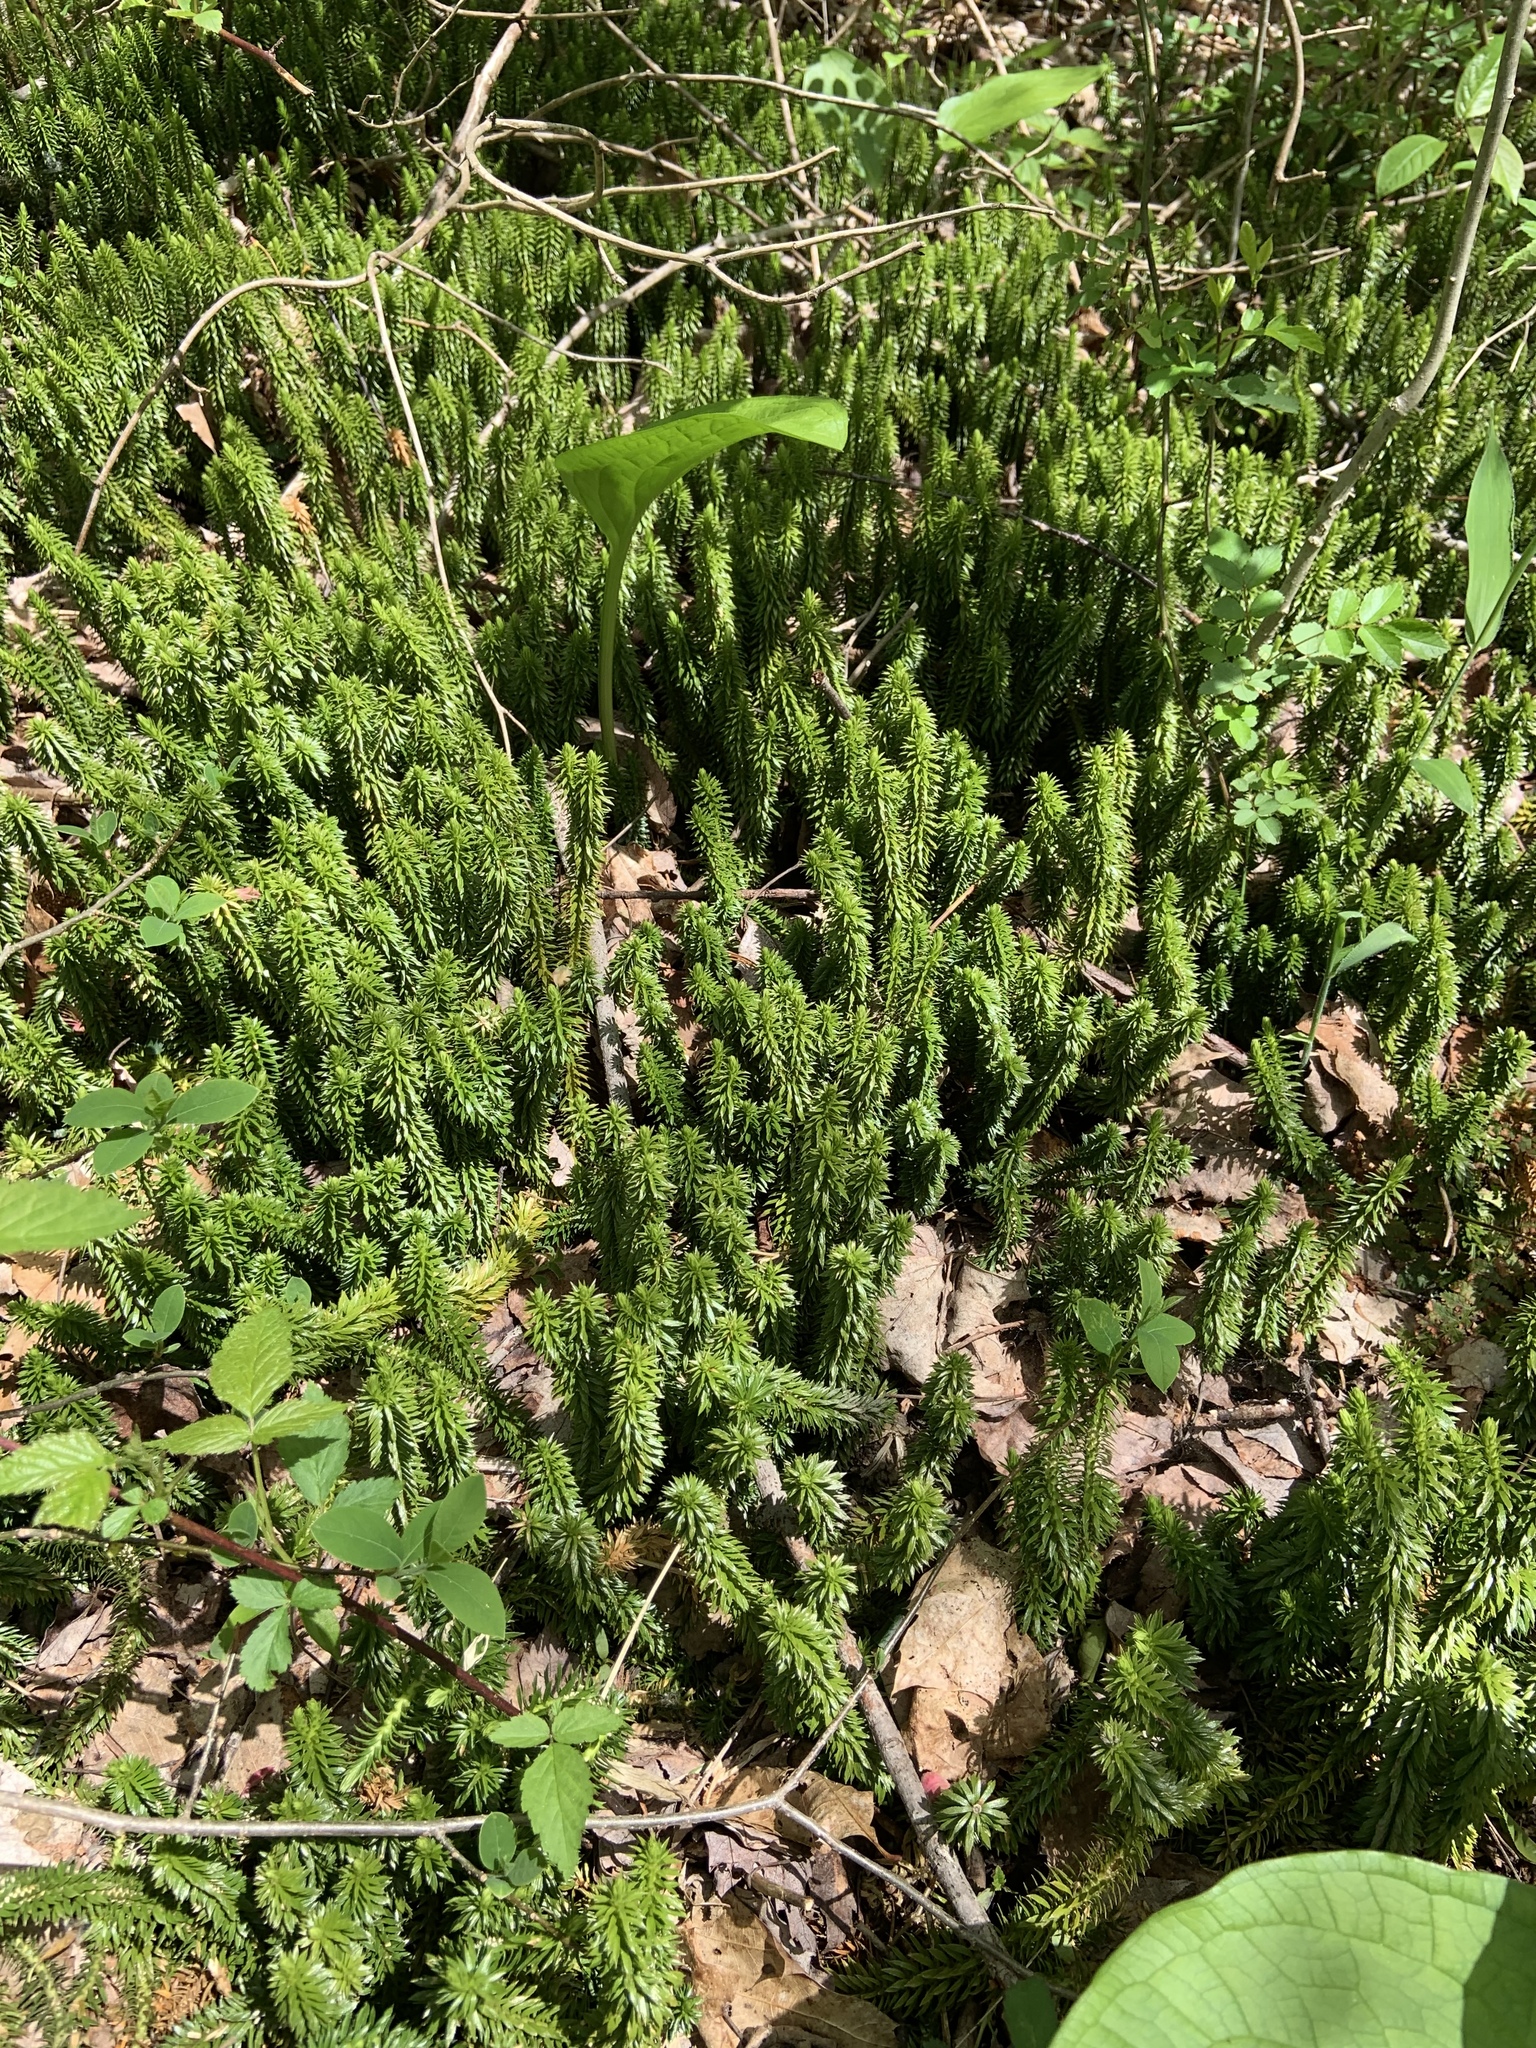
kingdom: Plantae
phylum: Tracheophyta
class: Lycopodiopsida
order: Lycopodiales
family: Lycopodiaceae
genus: Huperzia
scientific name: Huperzia lucidula
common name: Shining clubmoss
